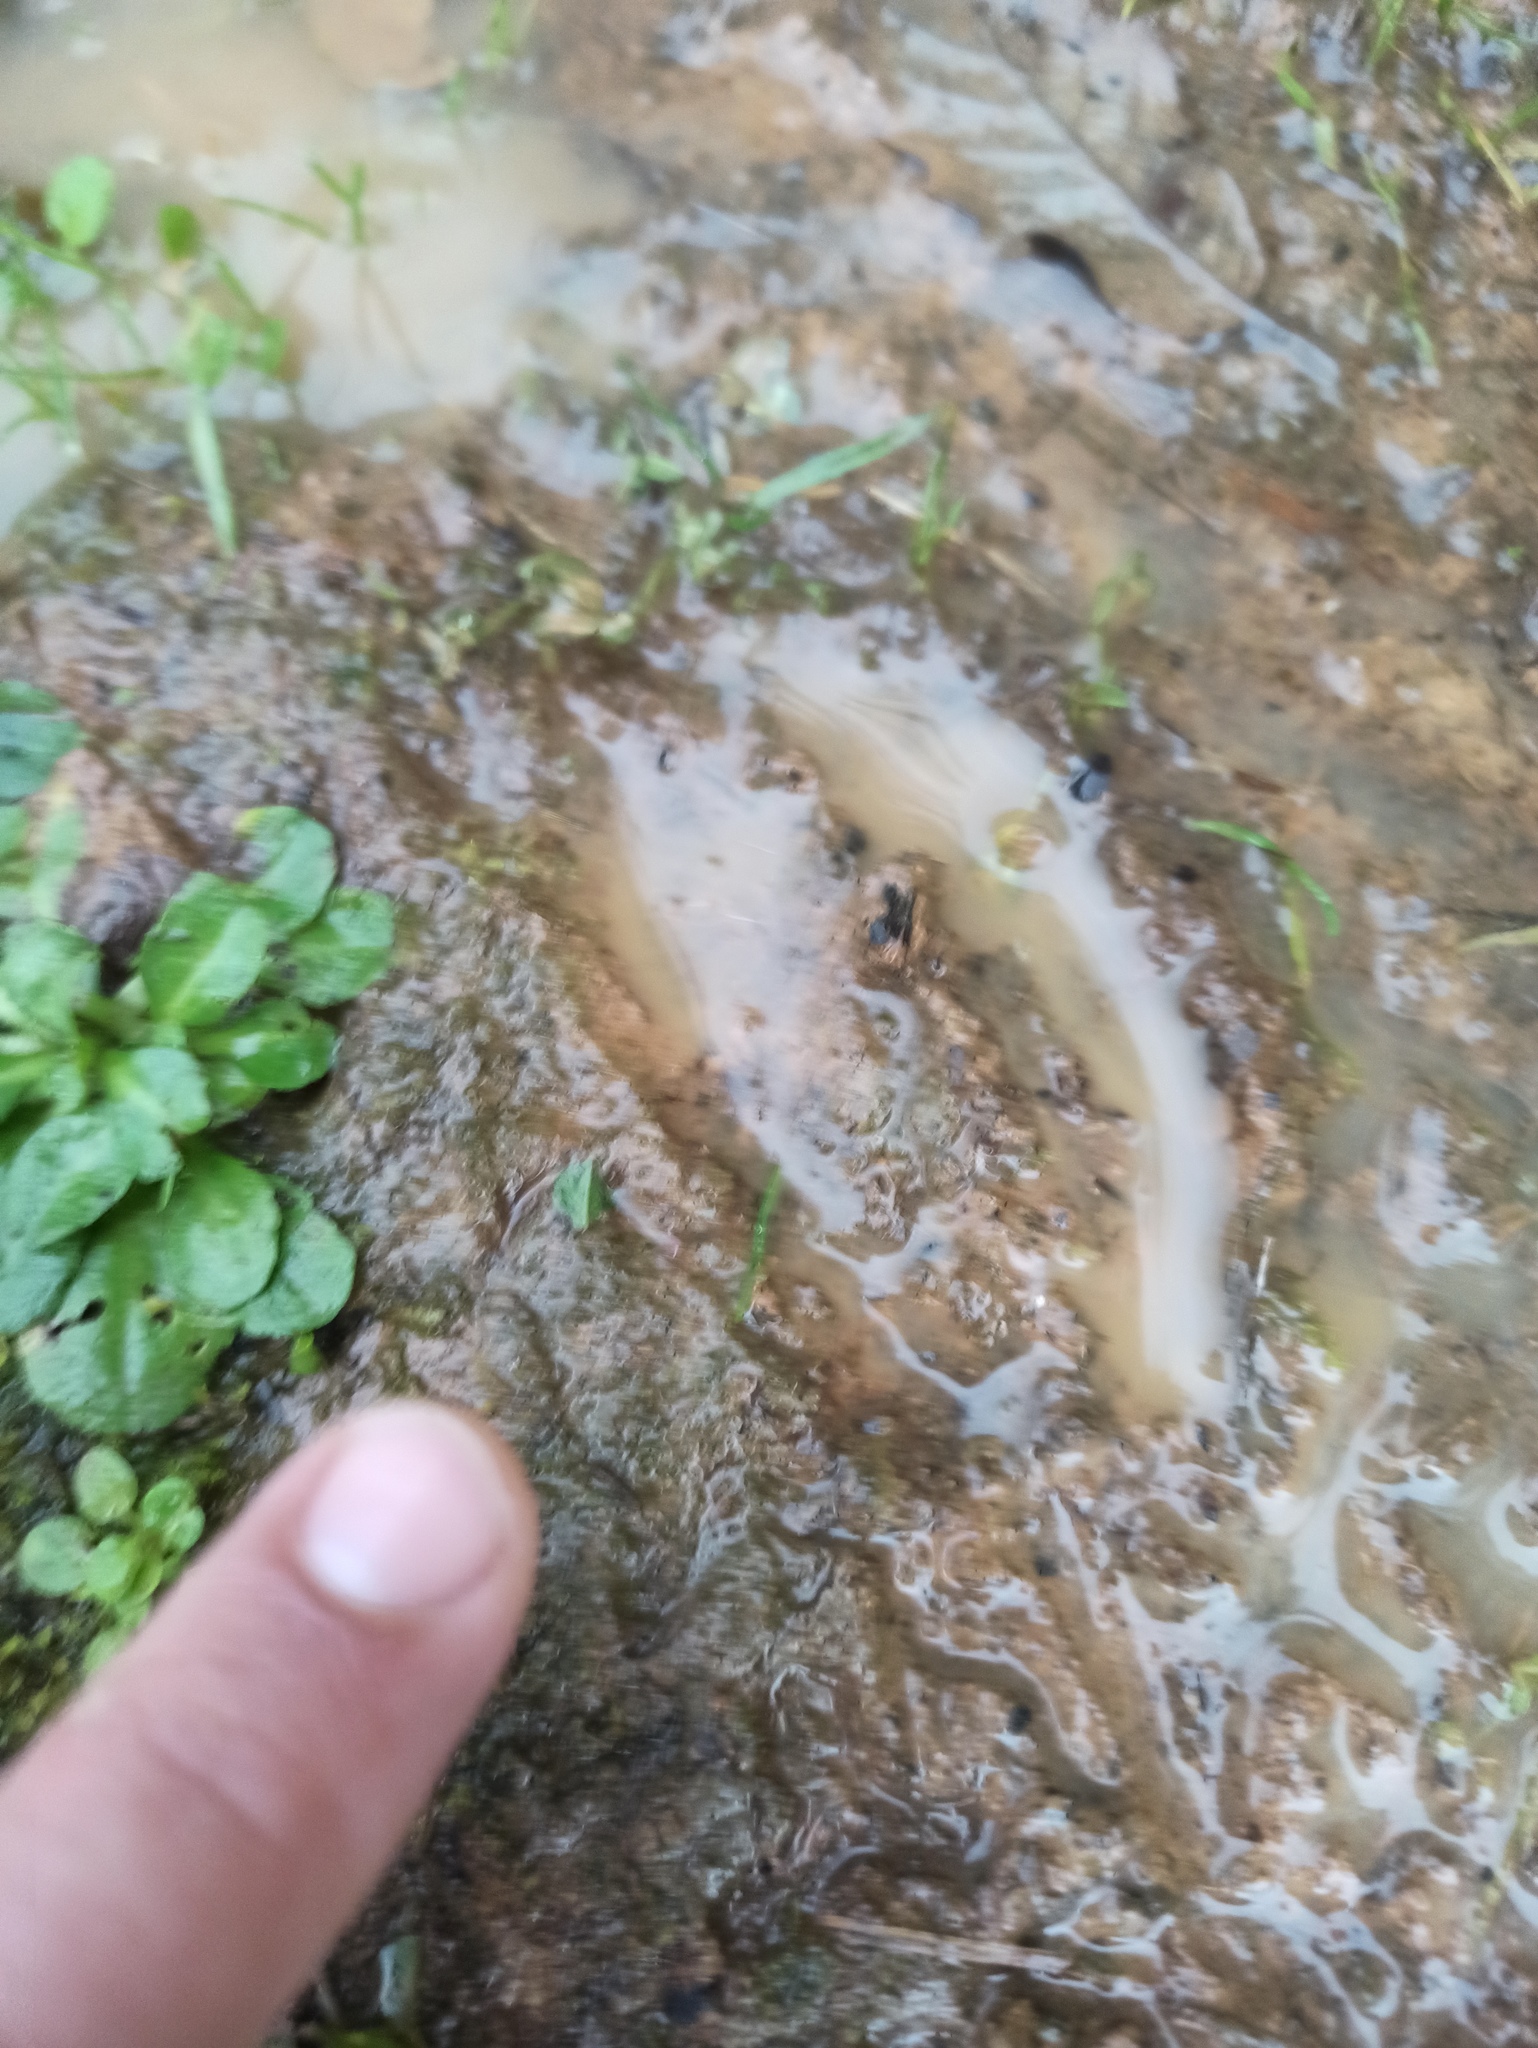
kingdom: Animalia
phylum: Chordata
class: Mammalia
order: Artiodactyla
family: Suidae
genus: Sus
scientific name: Sus scrofa
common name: Wild boar
